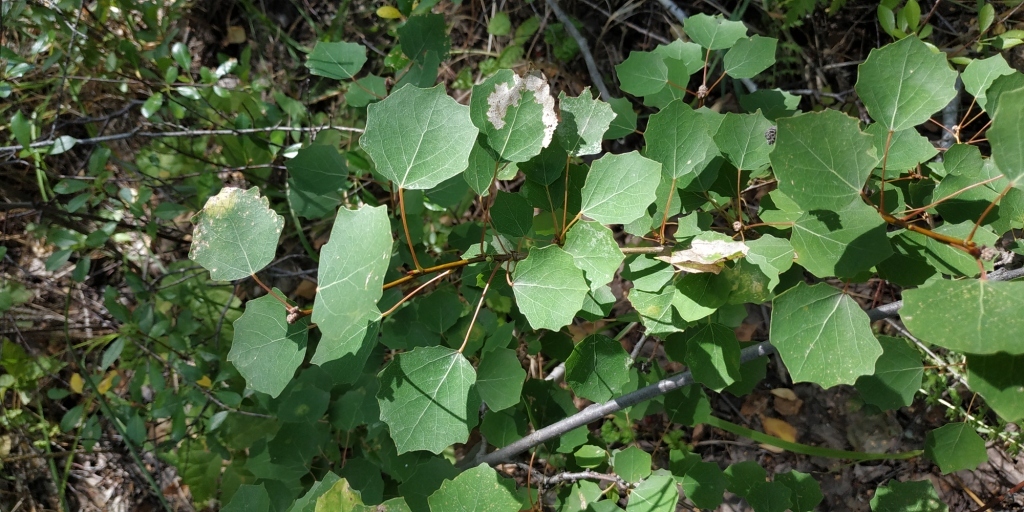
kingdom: Plantae
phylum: Tracheophyta
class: Magnoliopsida
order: Malpighiales
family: Salicaceae
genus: Populus
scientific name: Populus tremula
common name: European aspen
